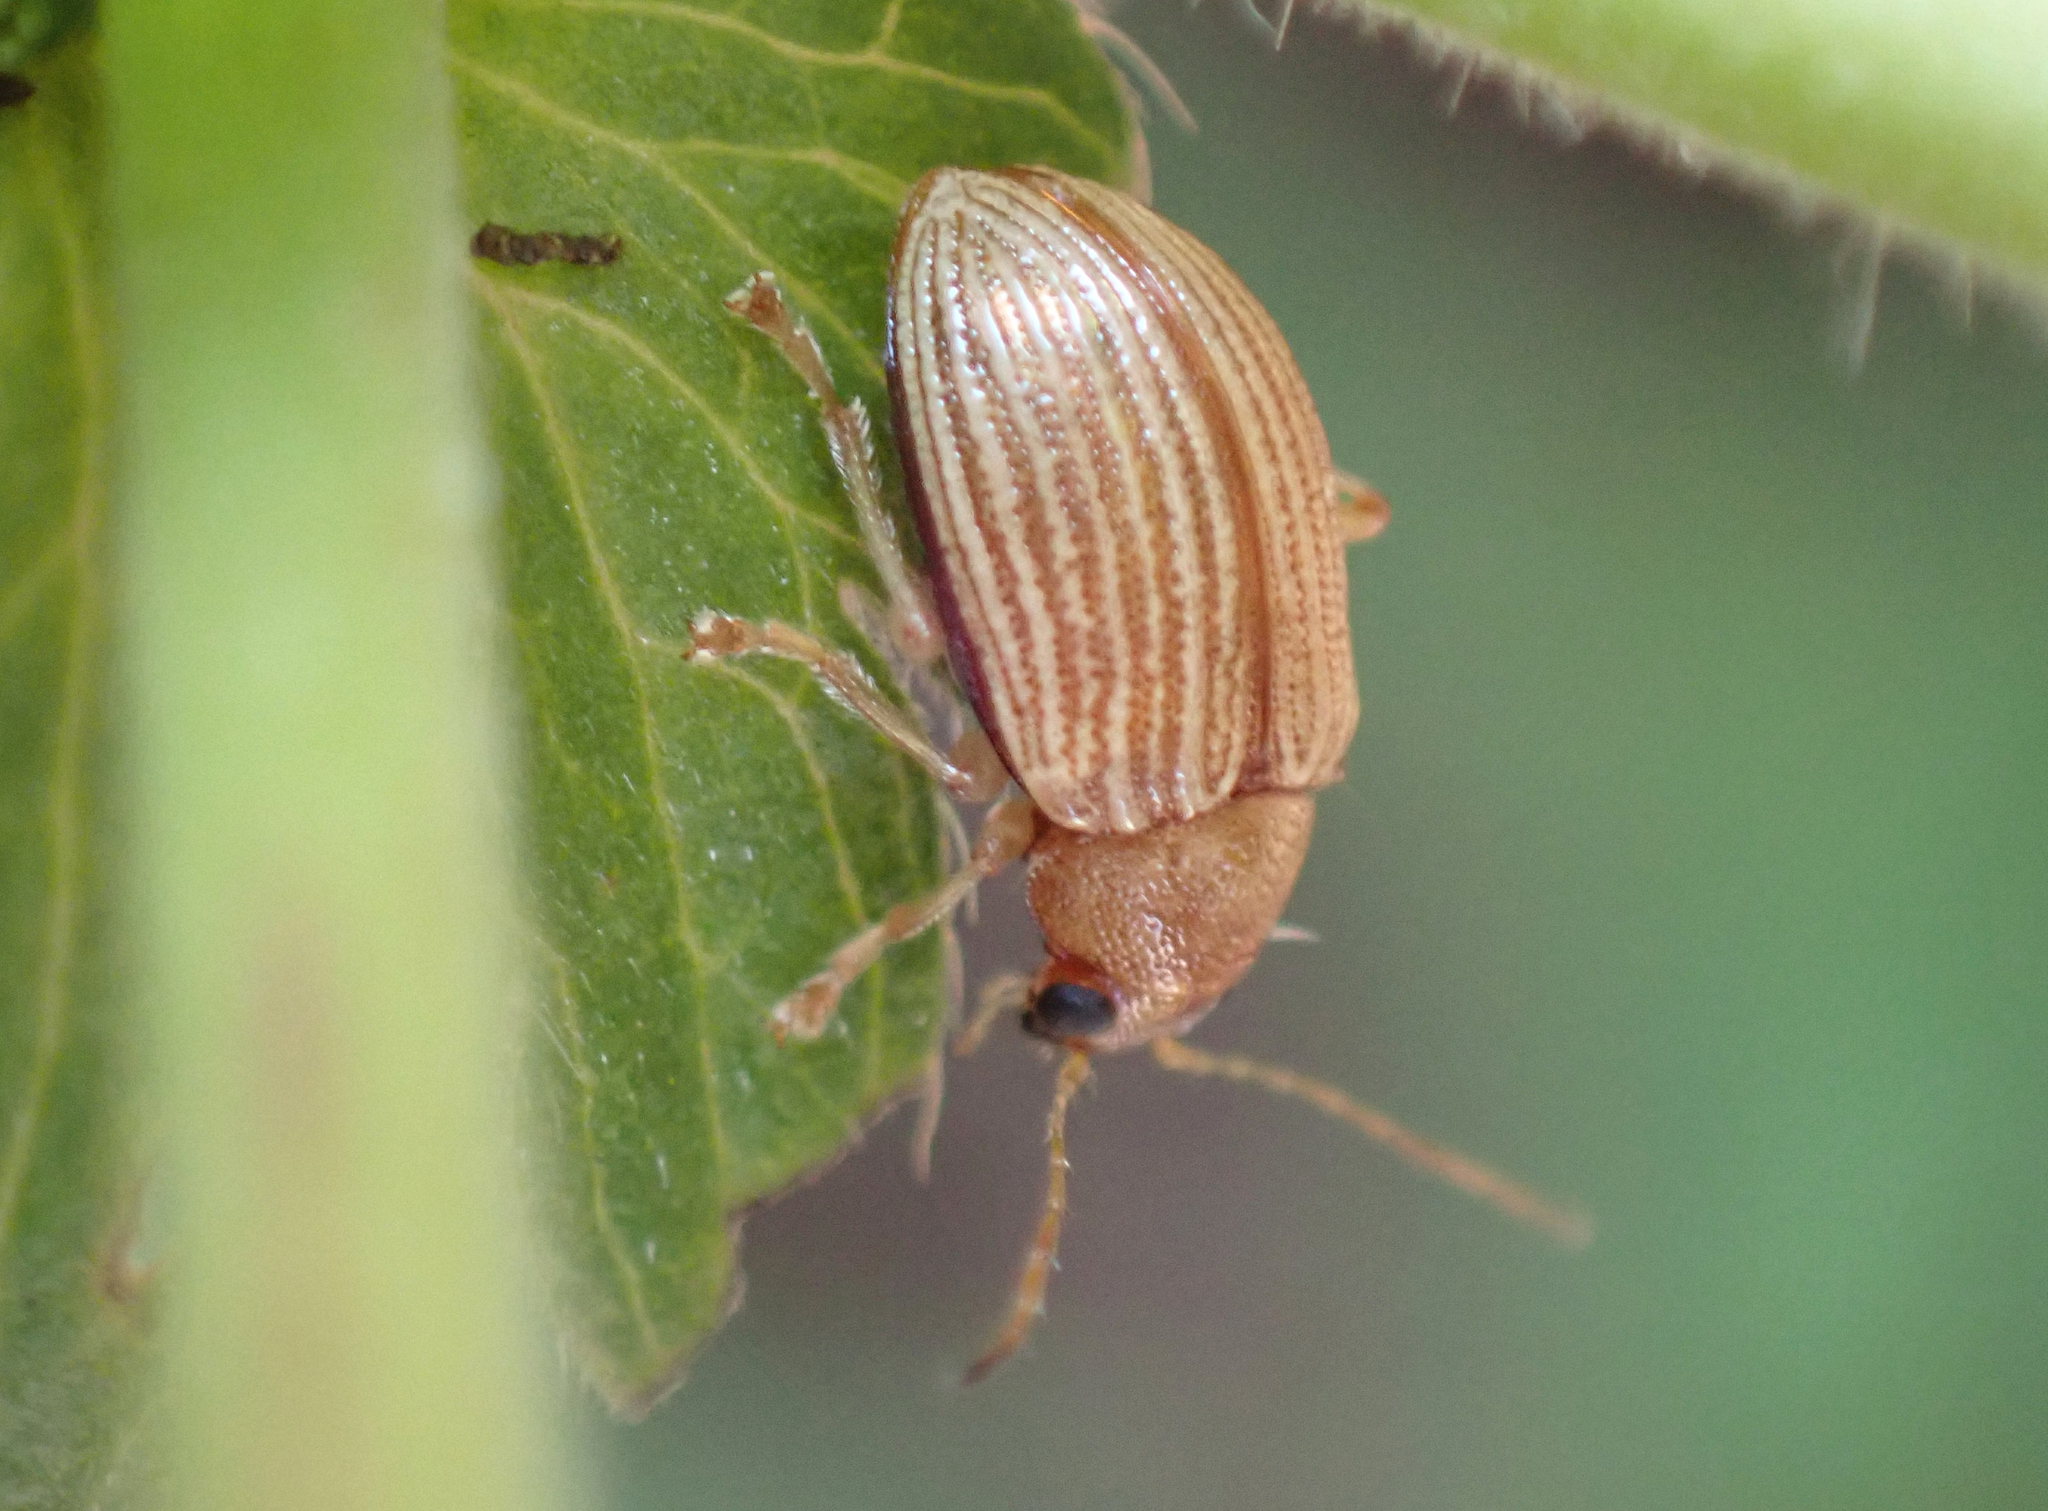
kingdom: Animalia
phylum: Arthropoda
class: Insecta
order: Coleoptera
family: Chrysomelidae
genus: Colaspis
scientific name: Colaspis brunnea
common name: Grape colaspis
